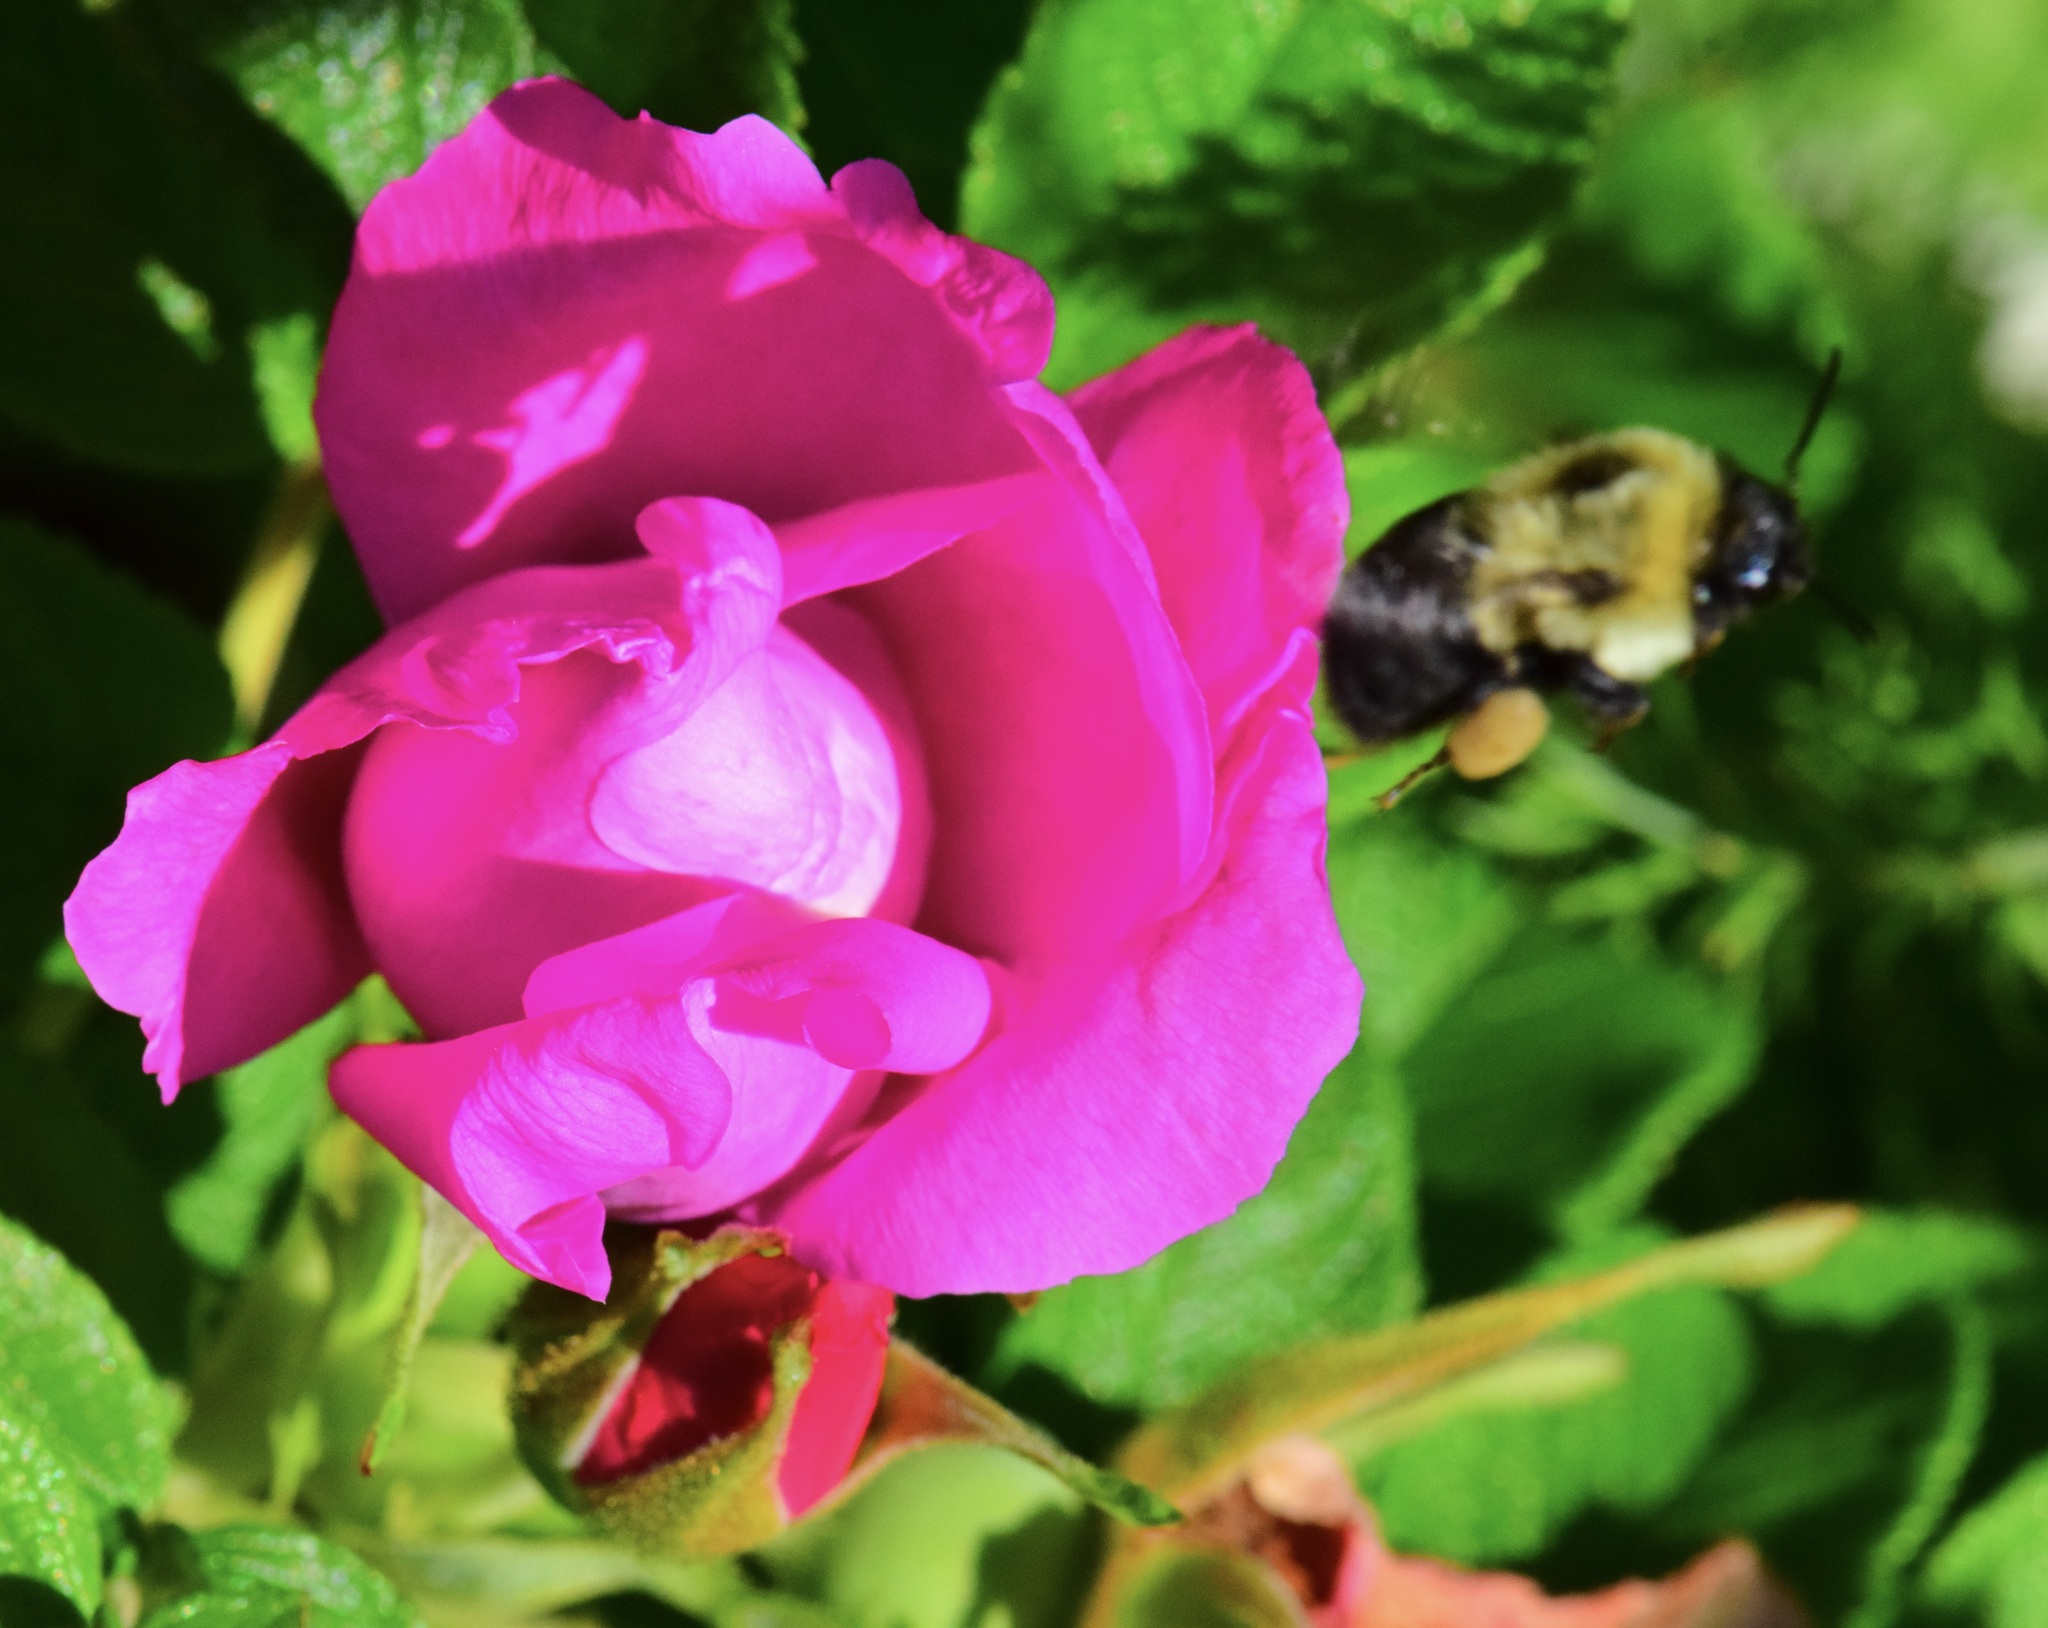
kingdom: Animalia
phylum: Arthropoda
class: Insecta
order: Hymenoptera
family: Apidae
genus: Bombus
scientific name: Bombus impatiens
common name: Common eastern bumble bee
